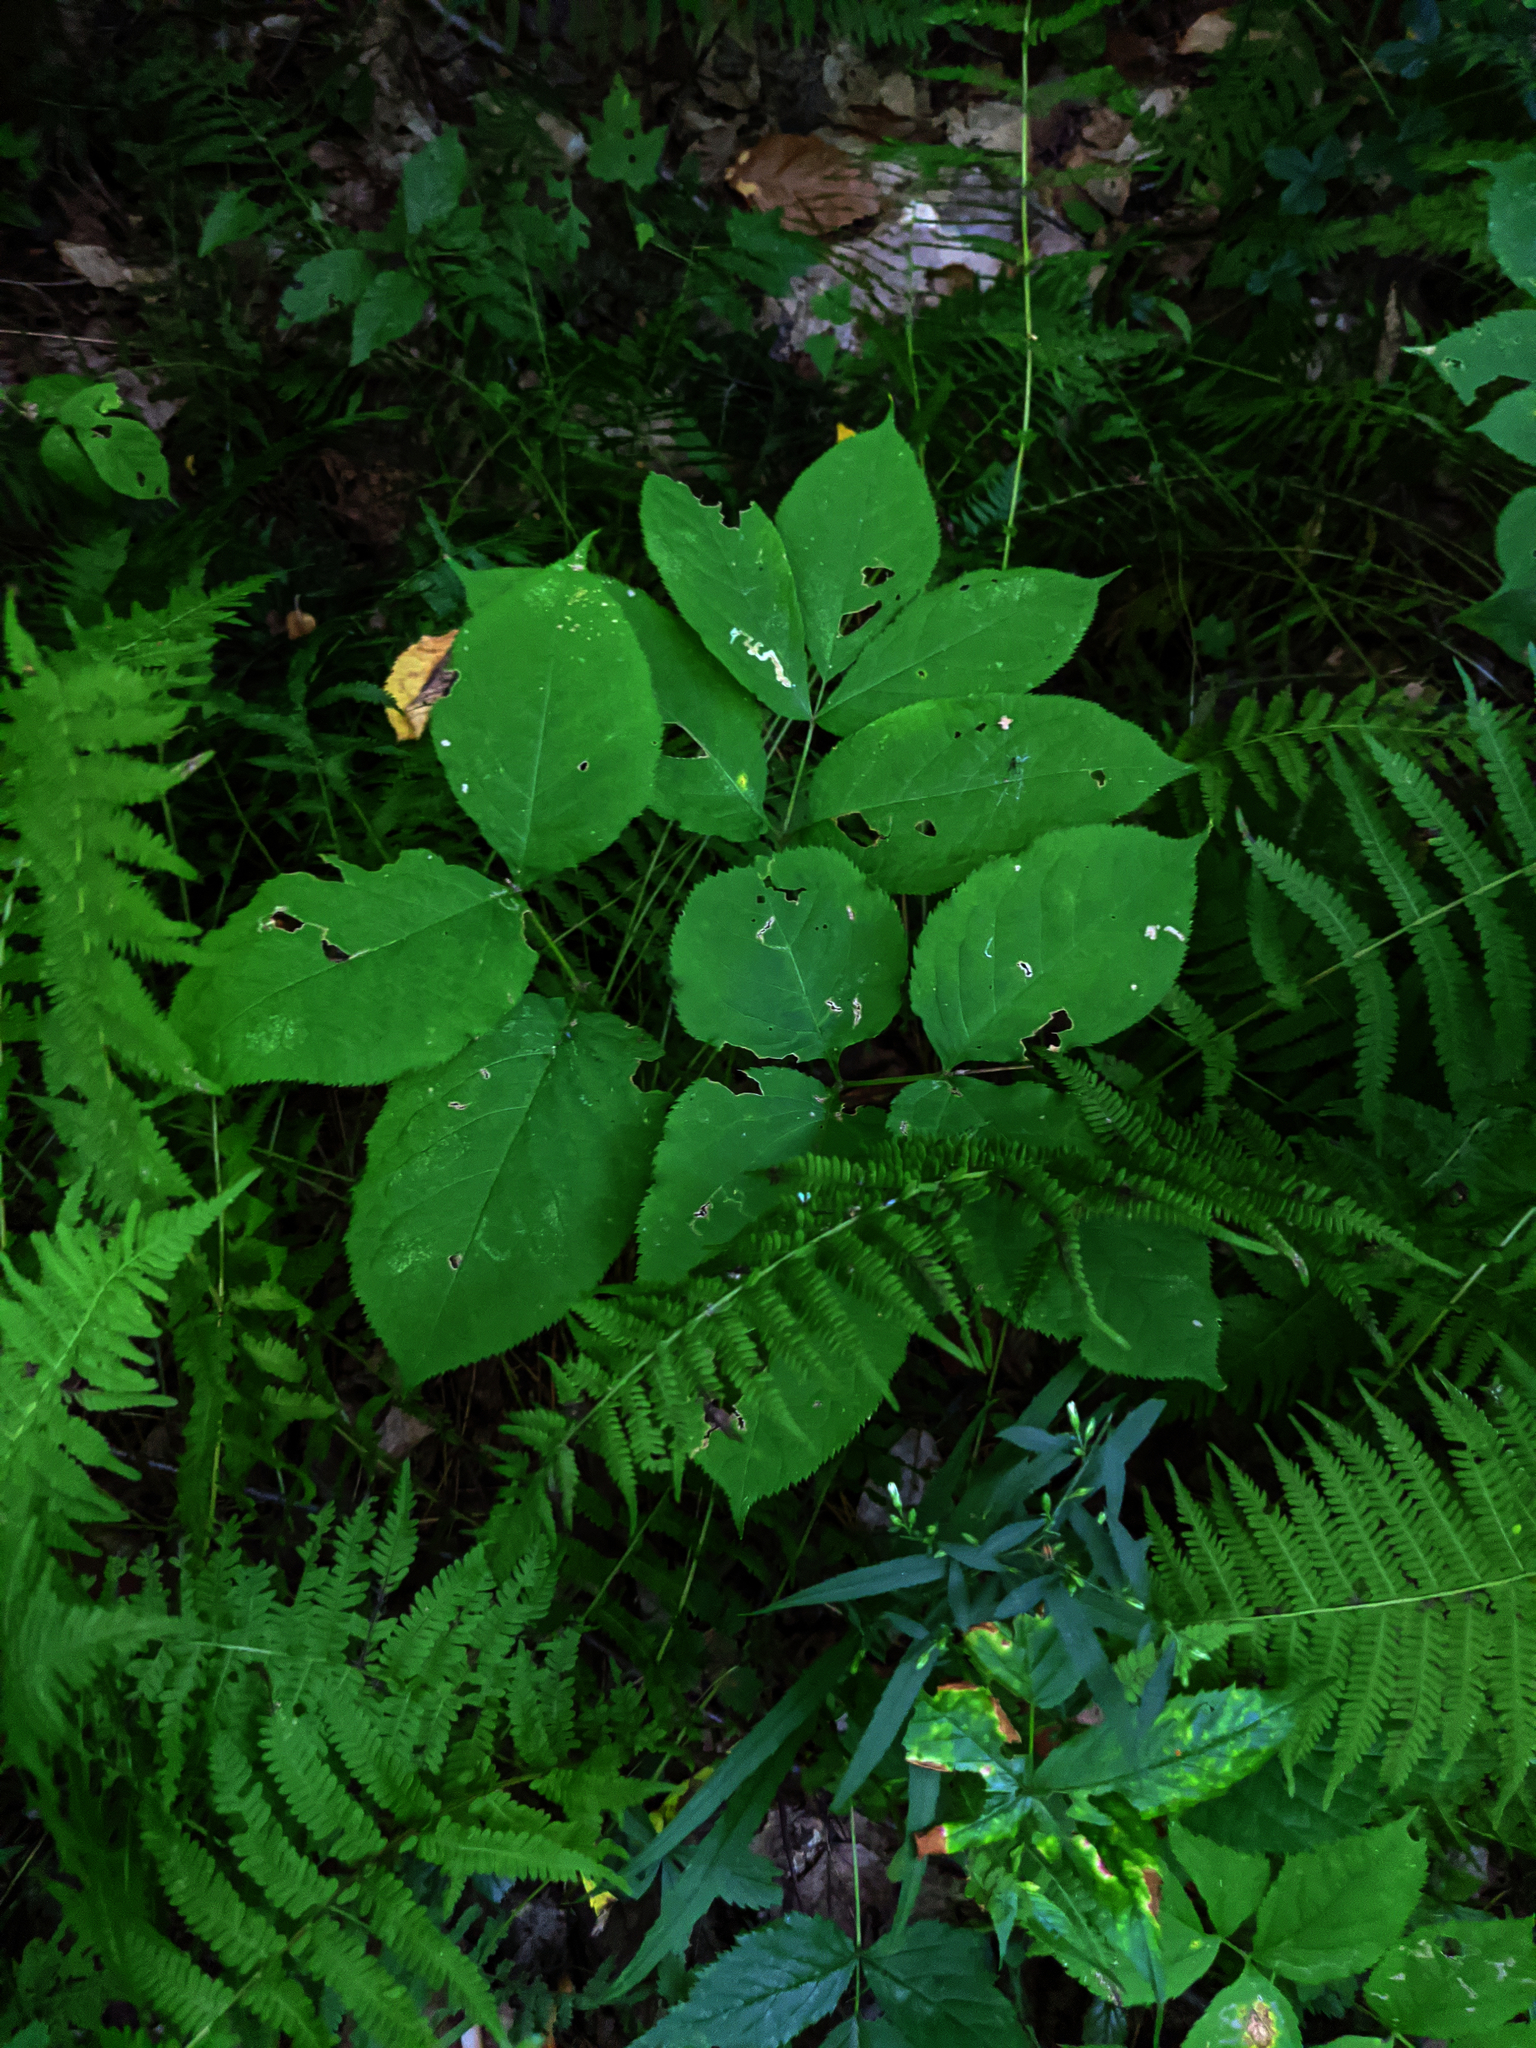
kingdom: Plantae
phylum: Tracheophyta
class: Magnoliopsida
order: Apiales
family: Araliaceae
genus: Aralia
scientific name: Aralia nudicaulis
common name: Wild sarsaparilla
